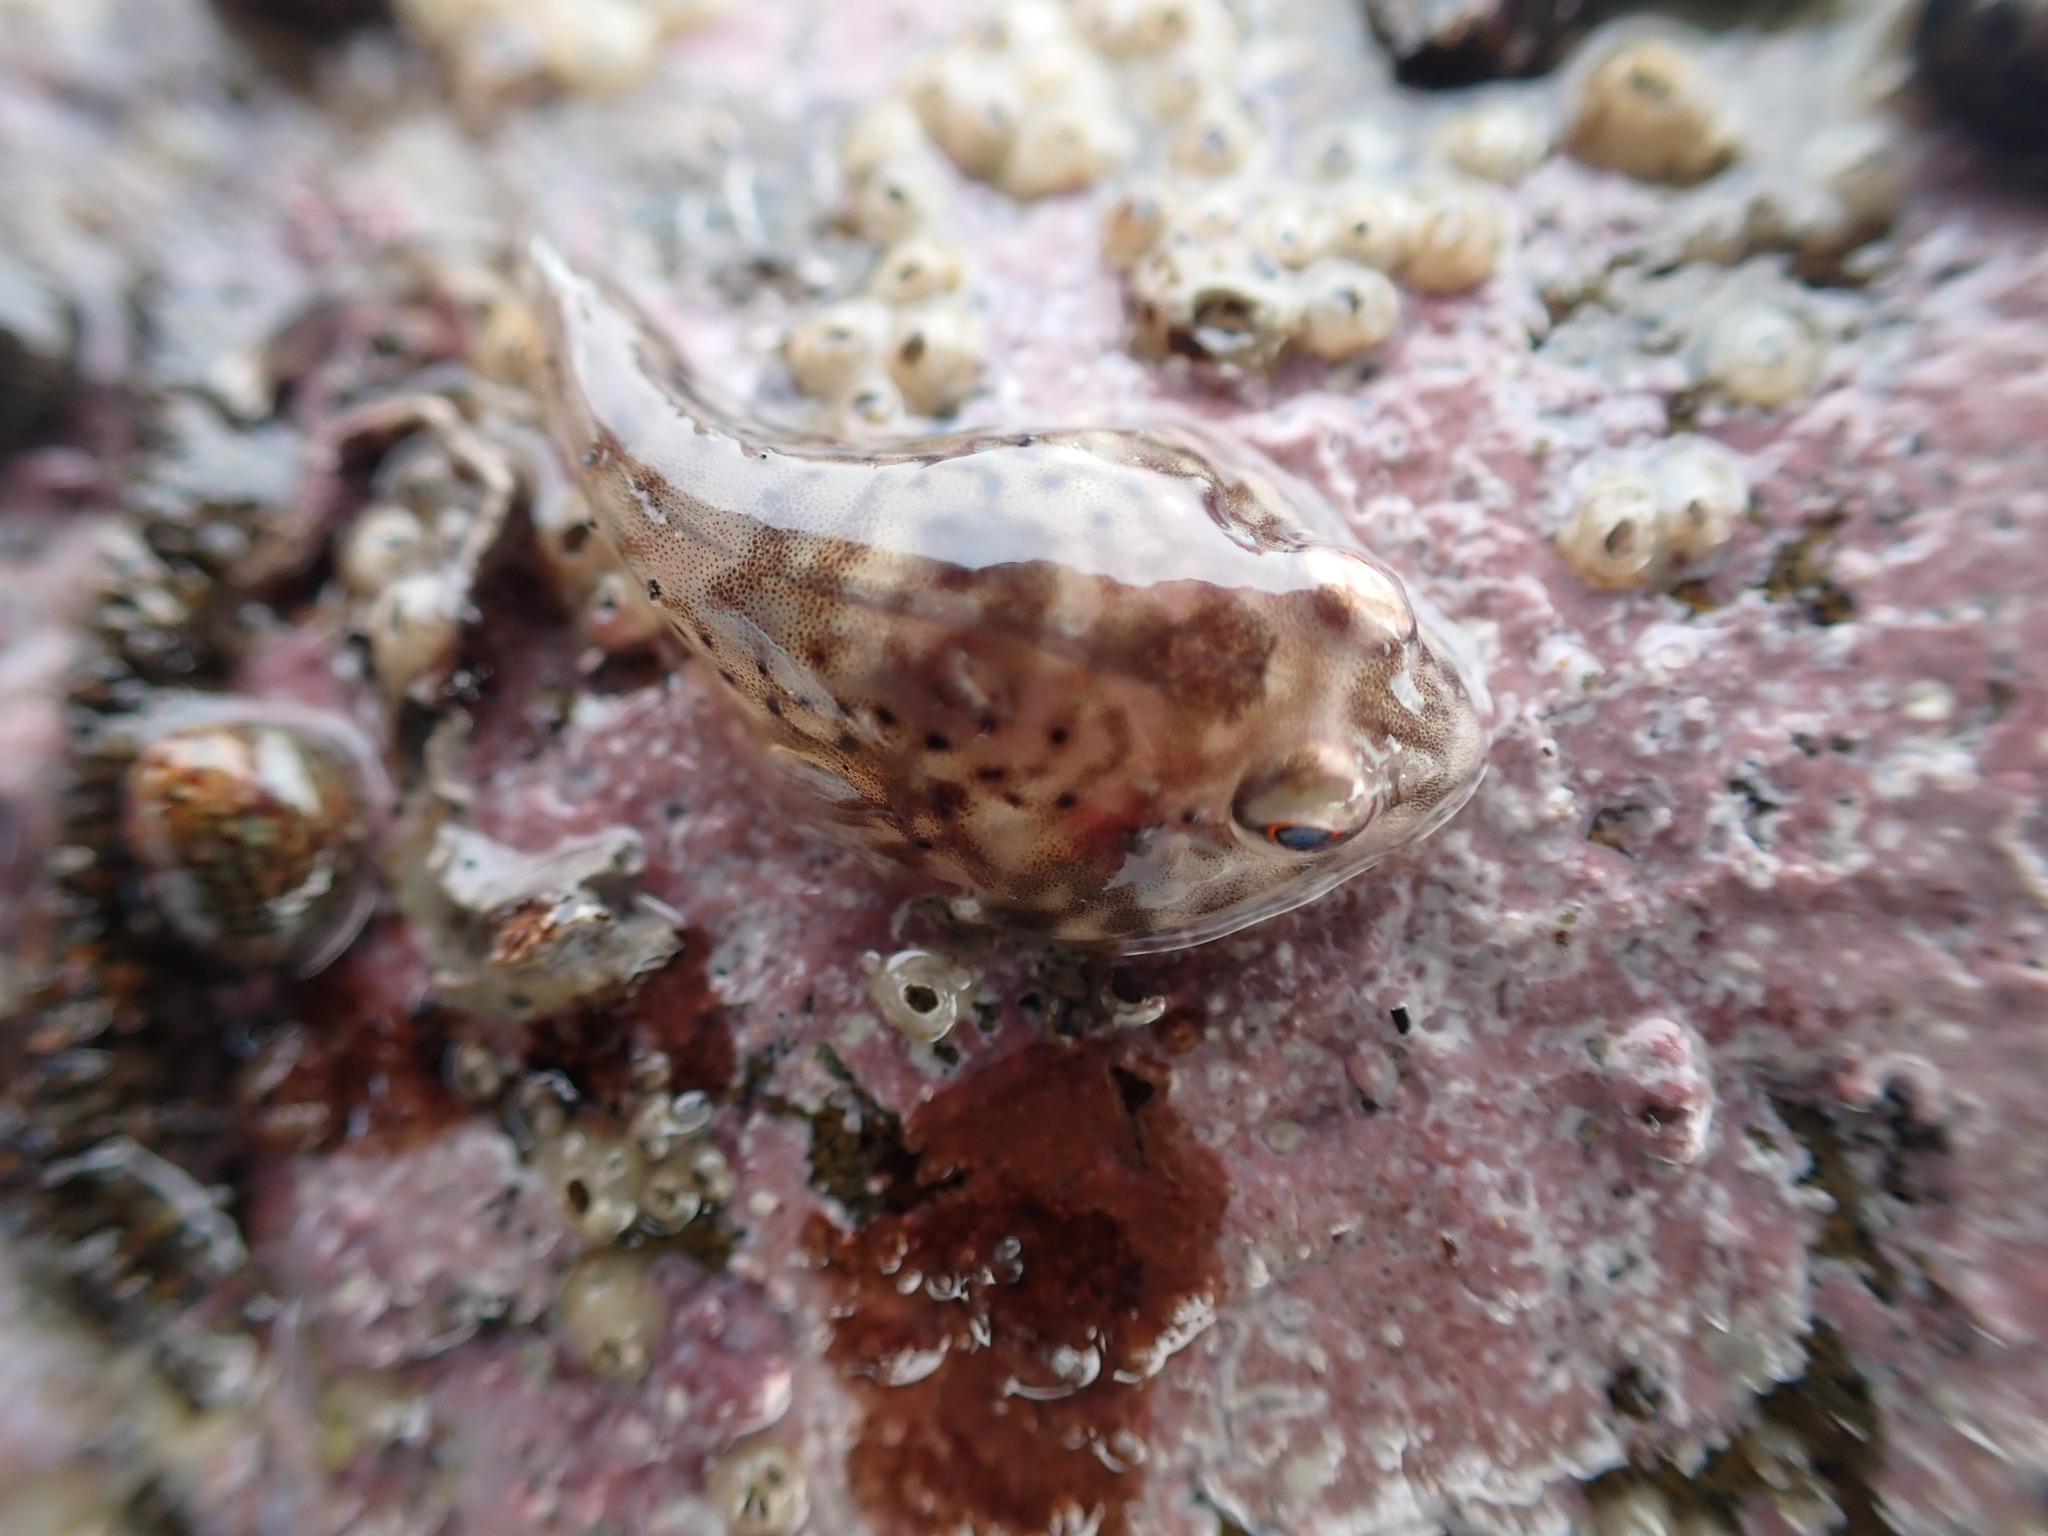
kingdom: Animalia
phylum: Chordata
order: Gobiesociformes
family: Gobiesocidae
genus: Diplocrepis
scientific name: Diplocrepis puniceus
